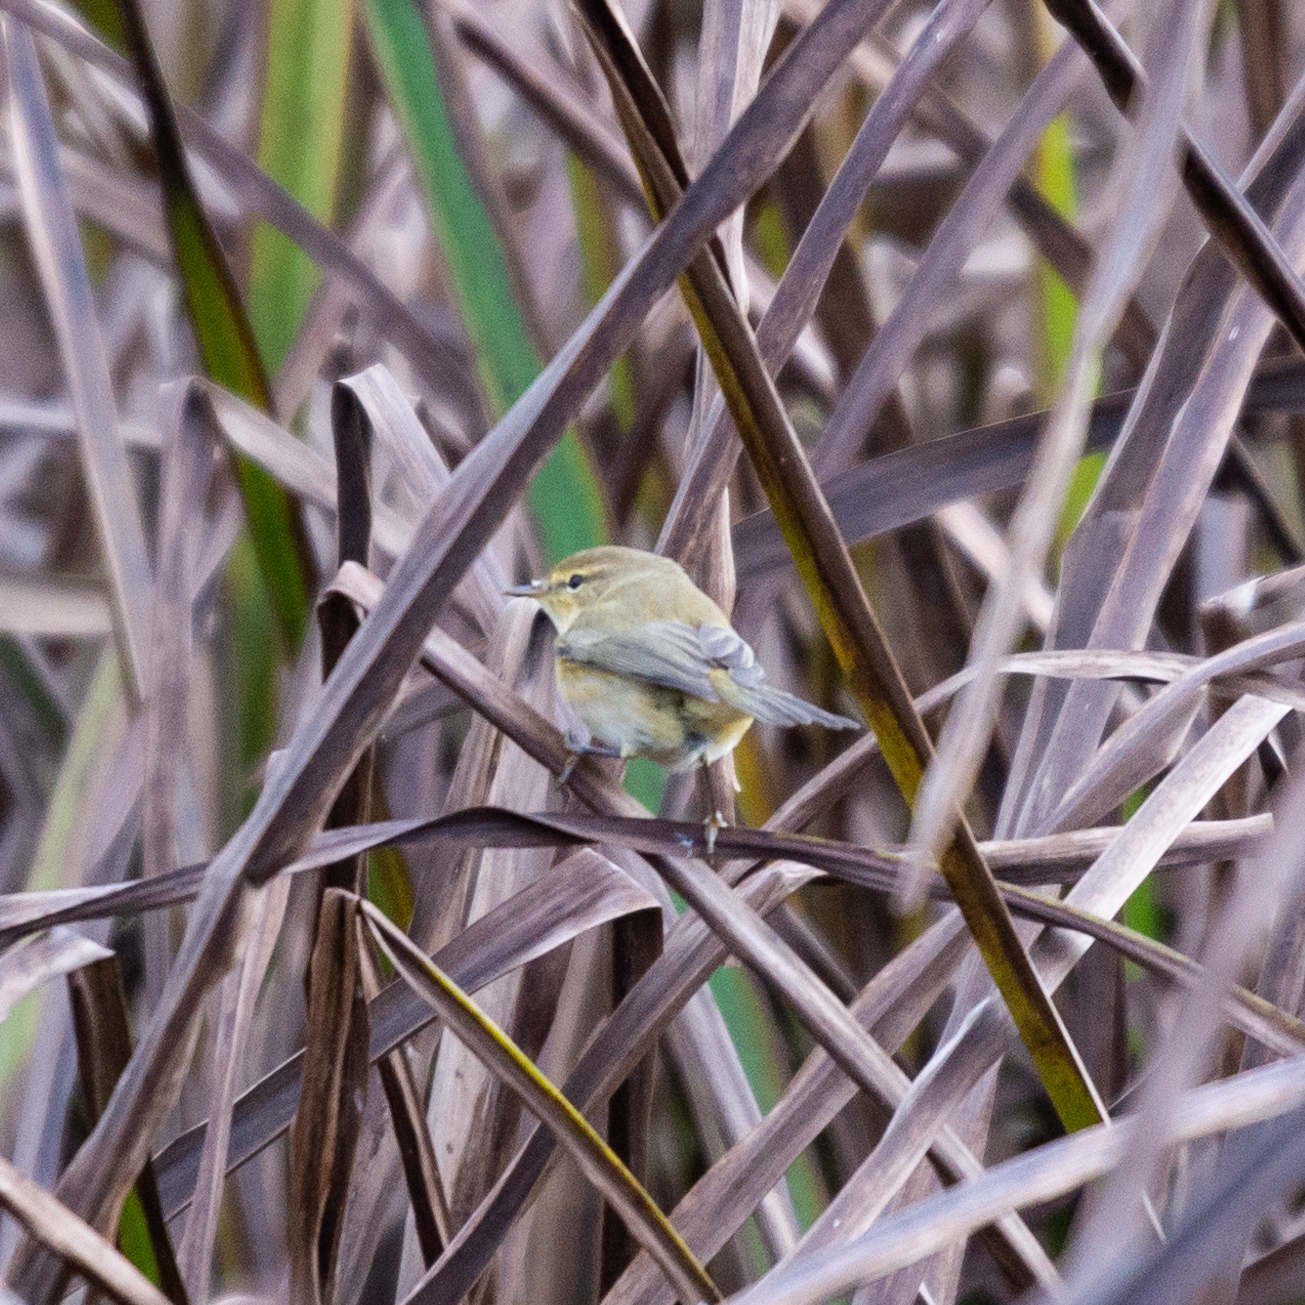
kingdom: Animalia
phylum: Chordata
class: Aves
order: Passeriformes
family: Phylloscopidae
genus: Phylloscopus
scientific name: Phylloscopus collybita
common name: Common chiffchaff
